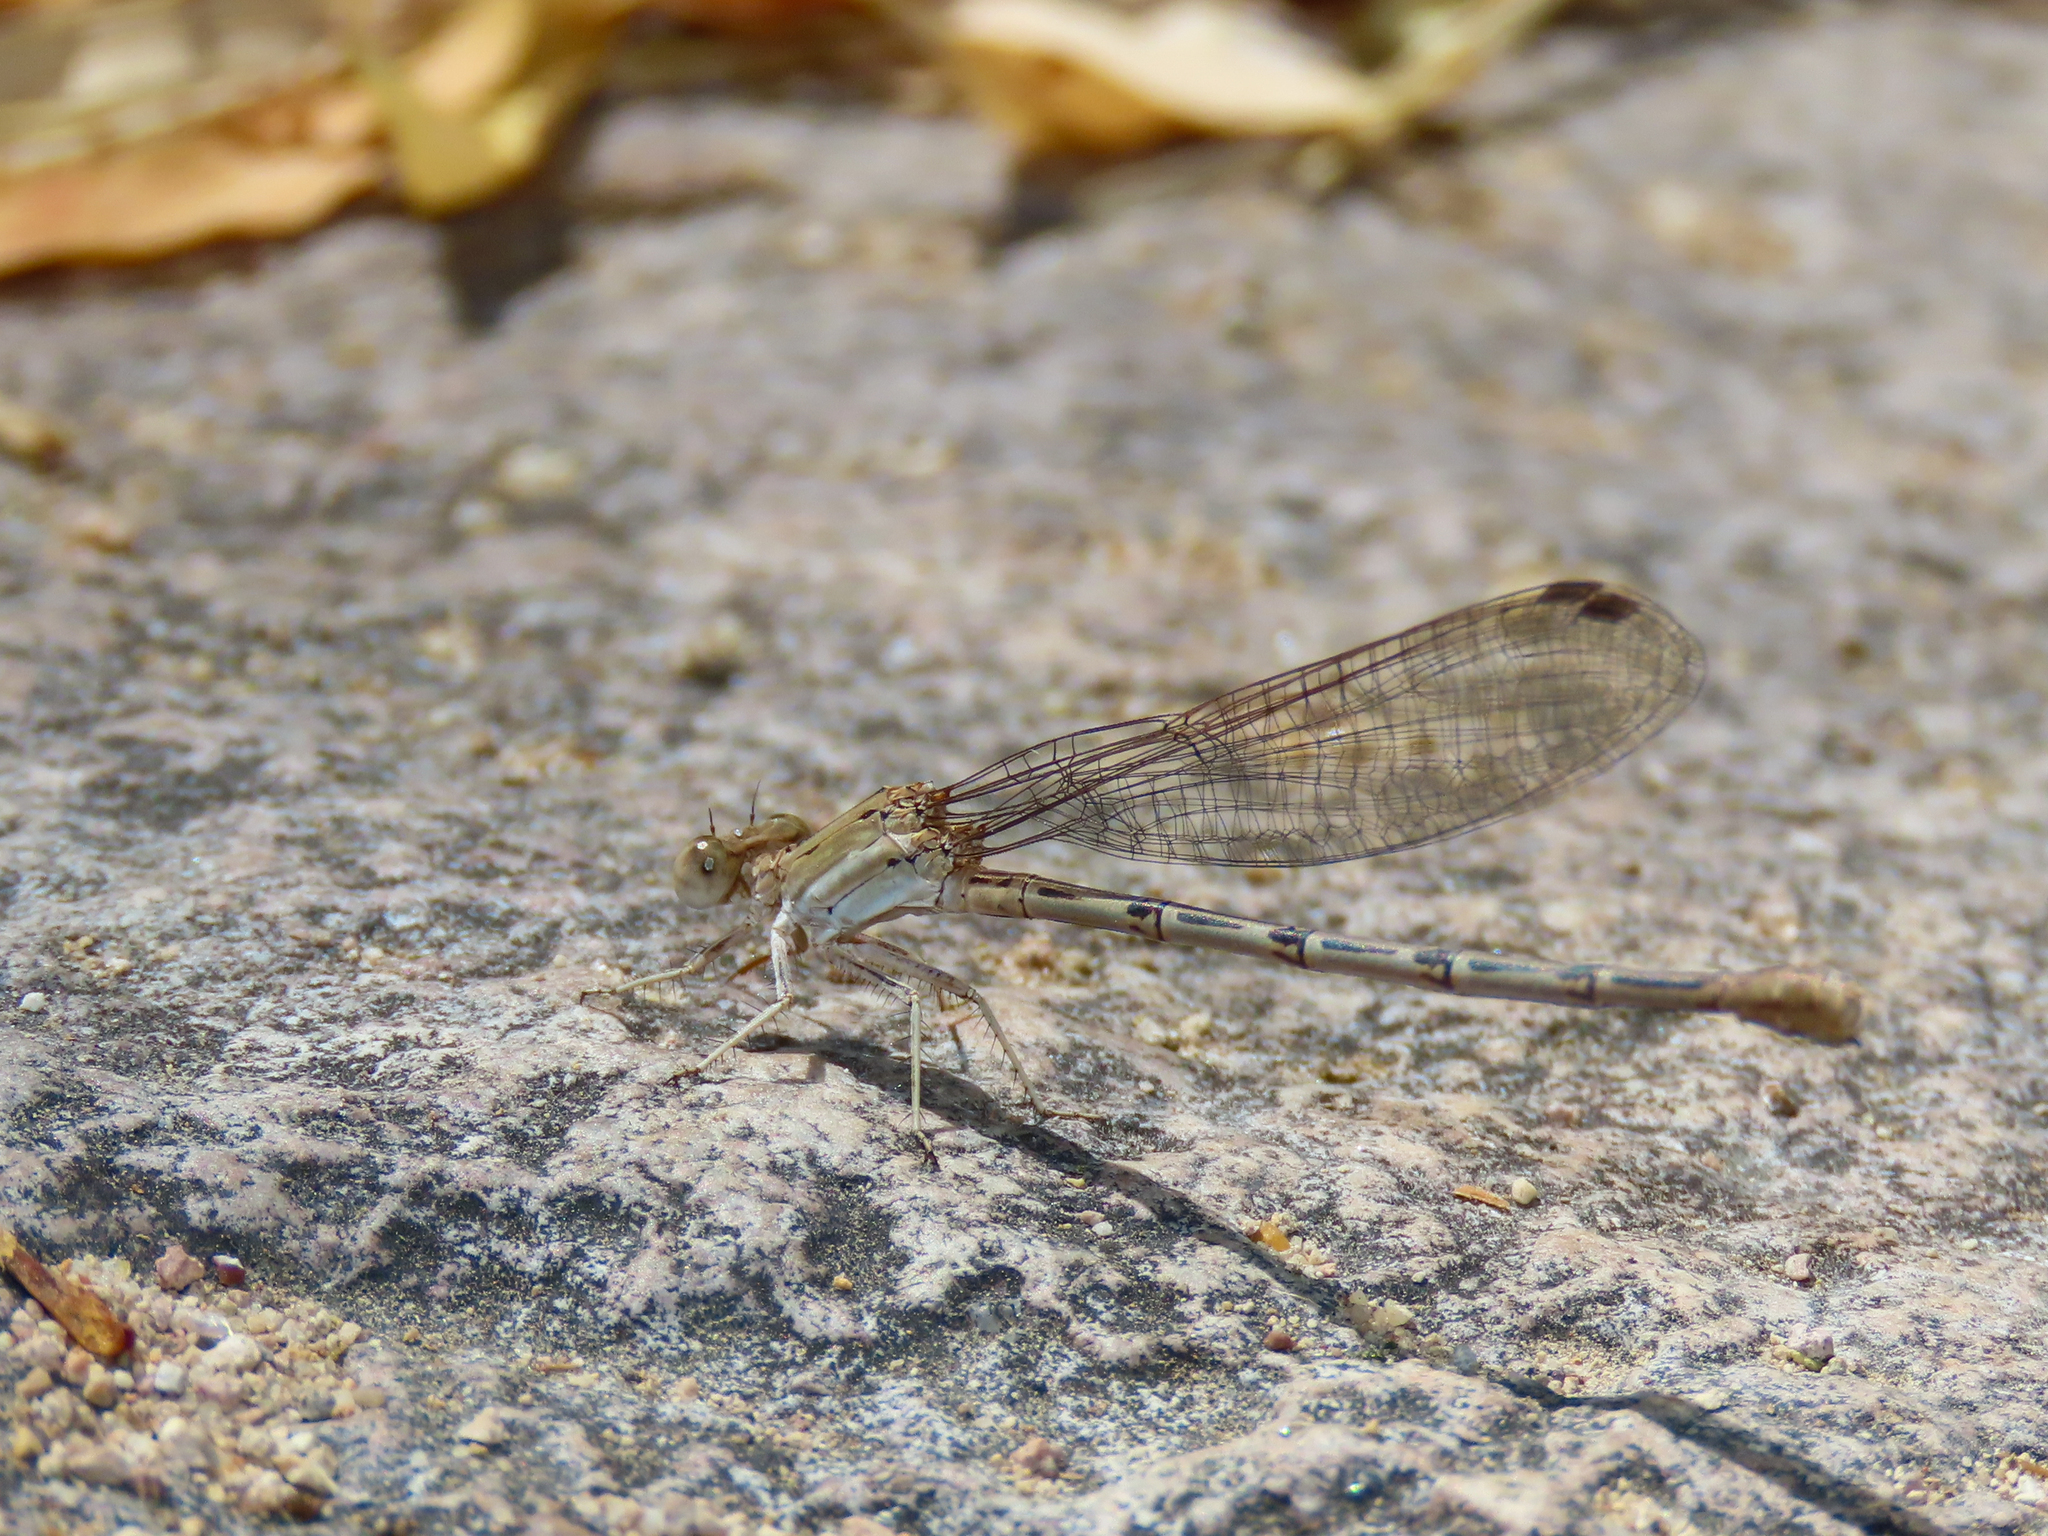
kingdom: Animalia
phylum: Arthropoda
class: Insecta
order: Odonata
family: Coenagrionidae
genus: Argia
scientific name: Argia pallens
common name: Amethyst dancer
